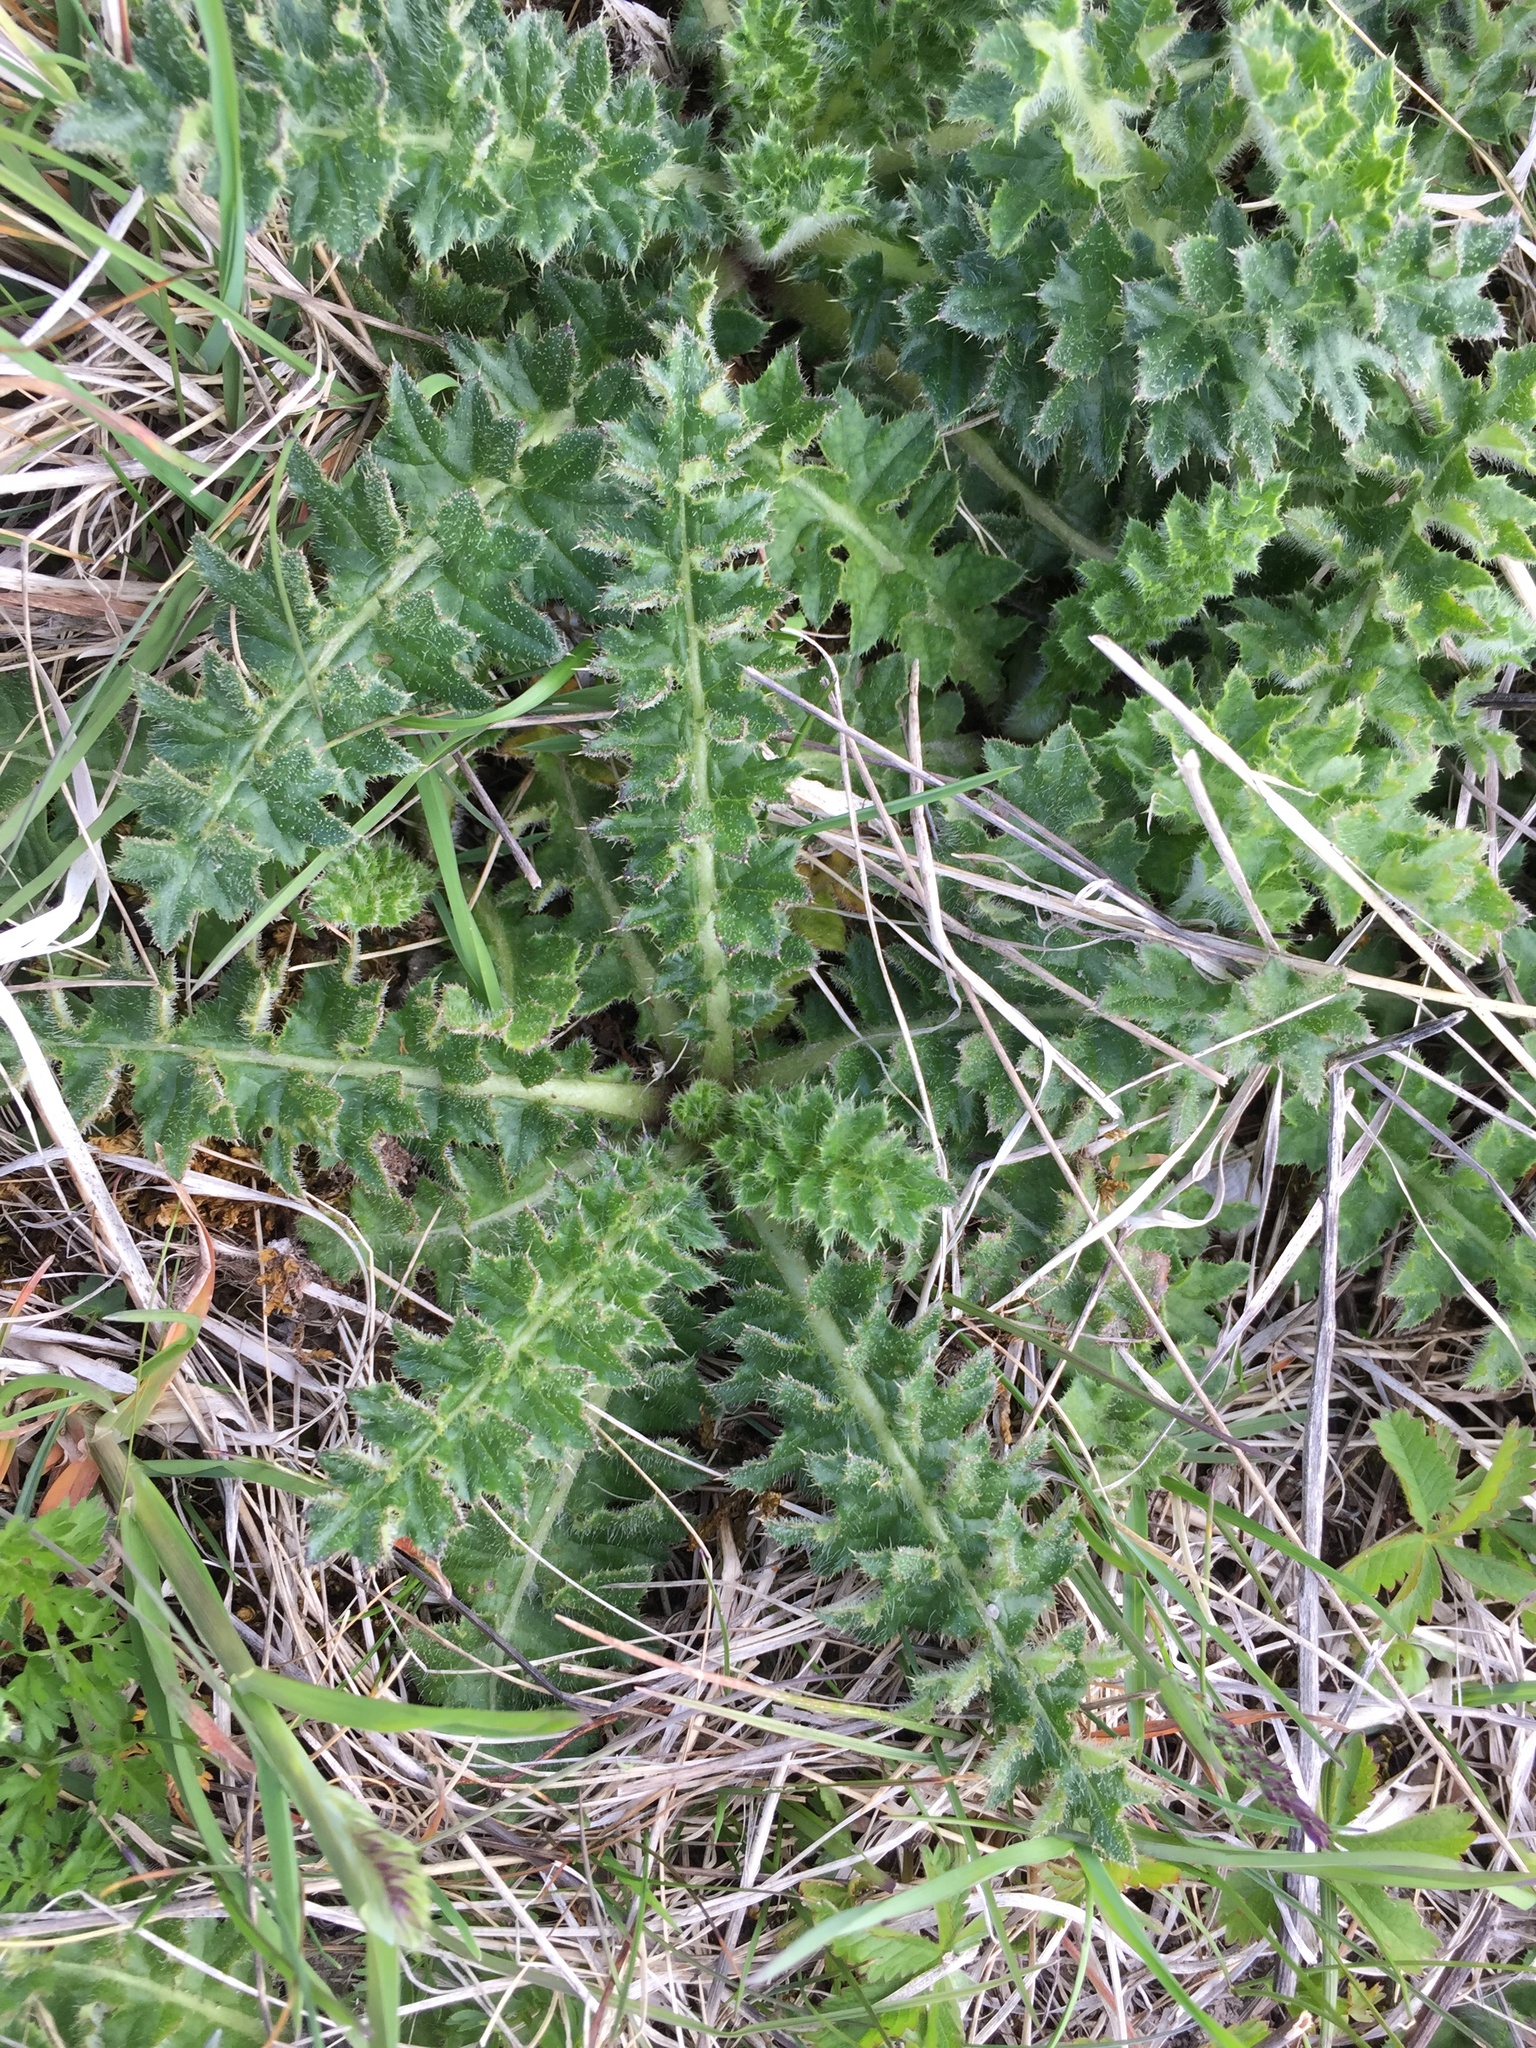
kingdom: Plantae
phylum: Tracheophyta
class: Magnoliopsida
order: Asterales
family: Asteraceae
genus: Cirsium
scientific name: Cirsium acaulon
